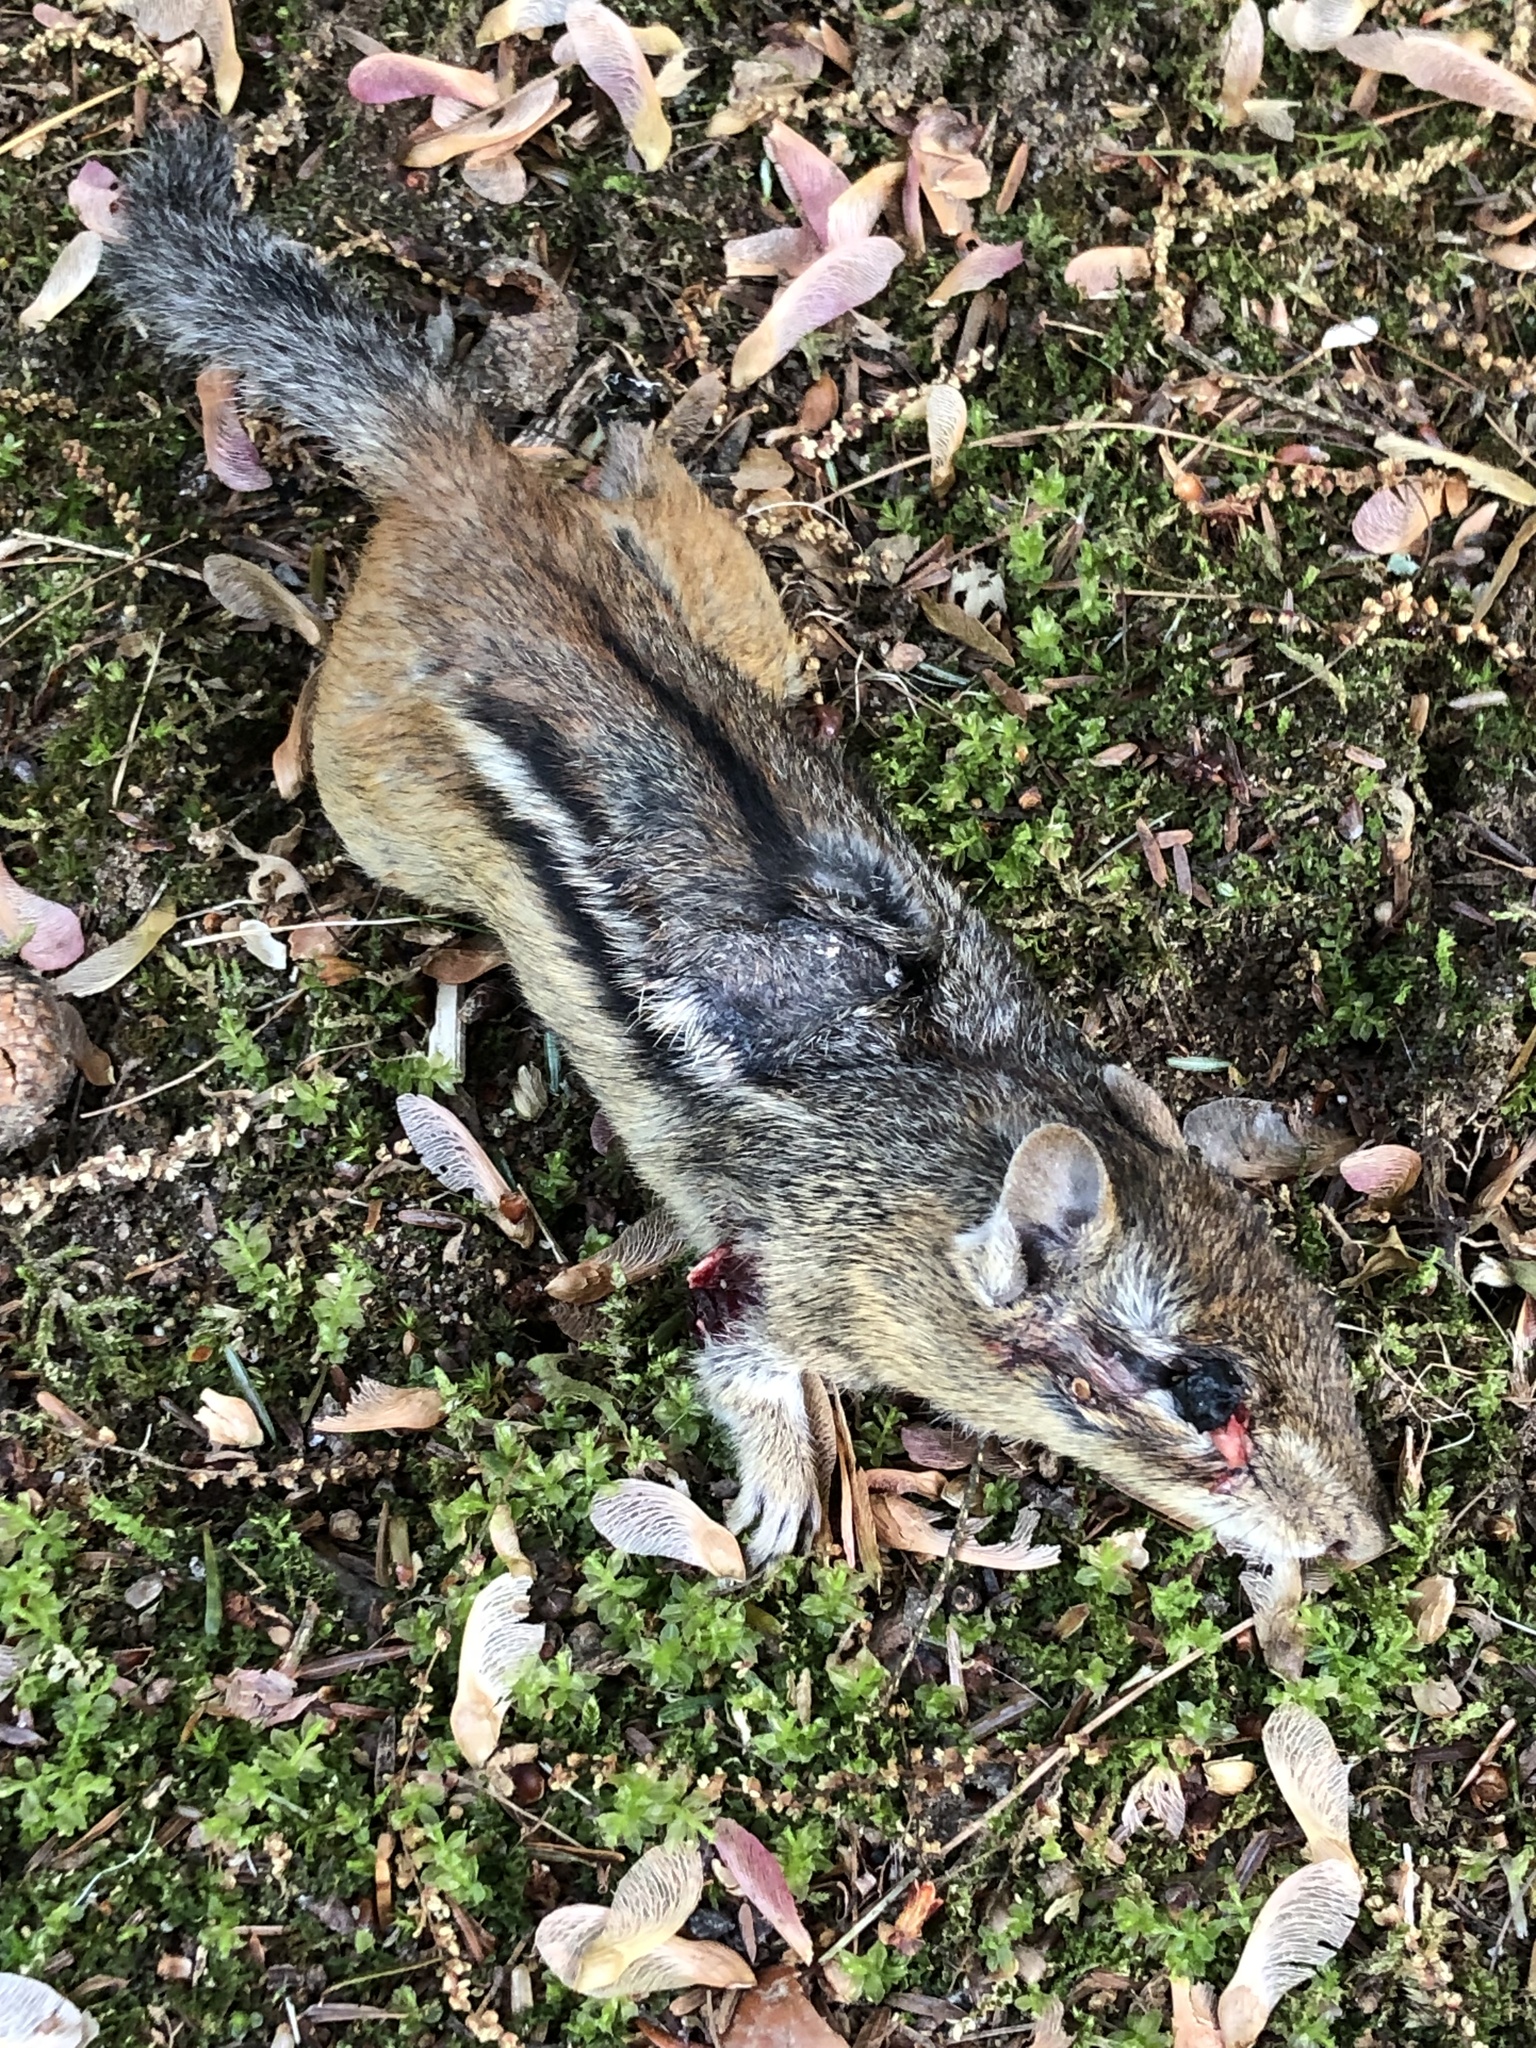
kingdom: Animalia
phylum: Chordata
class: Mammalia
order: Rodentia
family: Sciuridae
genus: Tamias
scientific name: Tamias striatus
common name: Eastern chipmunk
